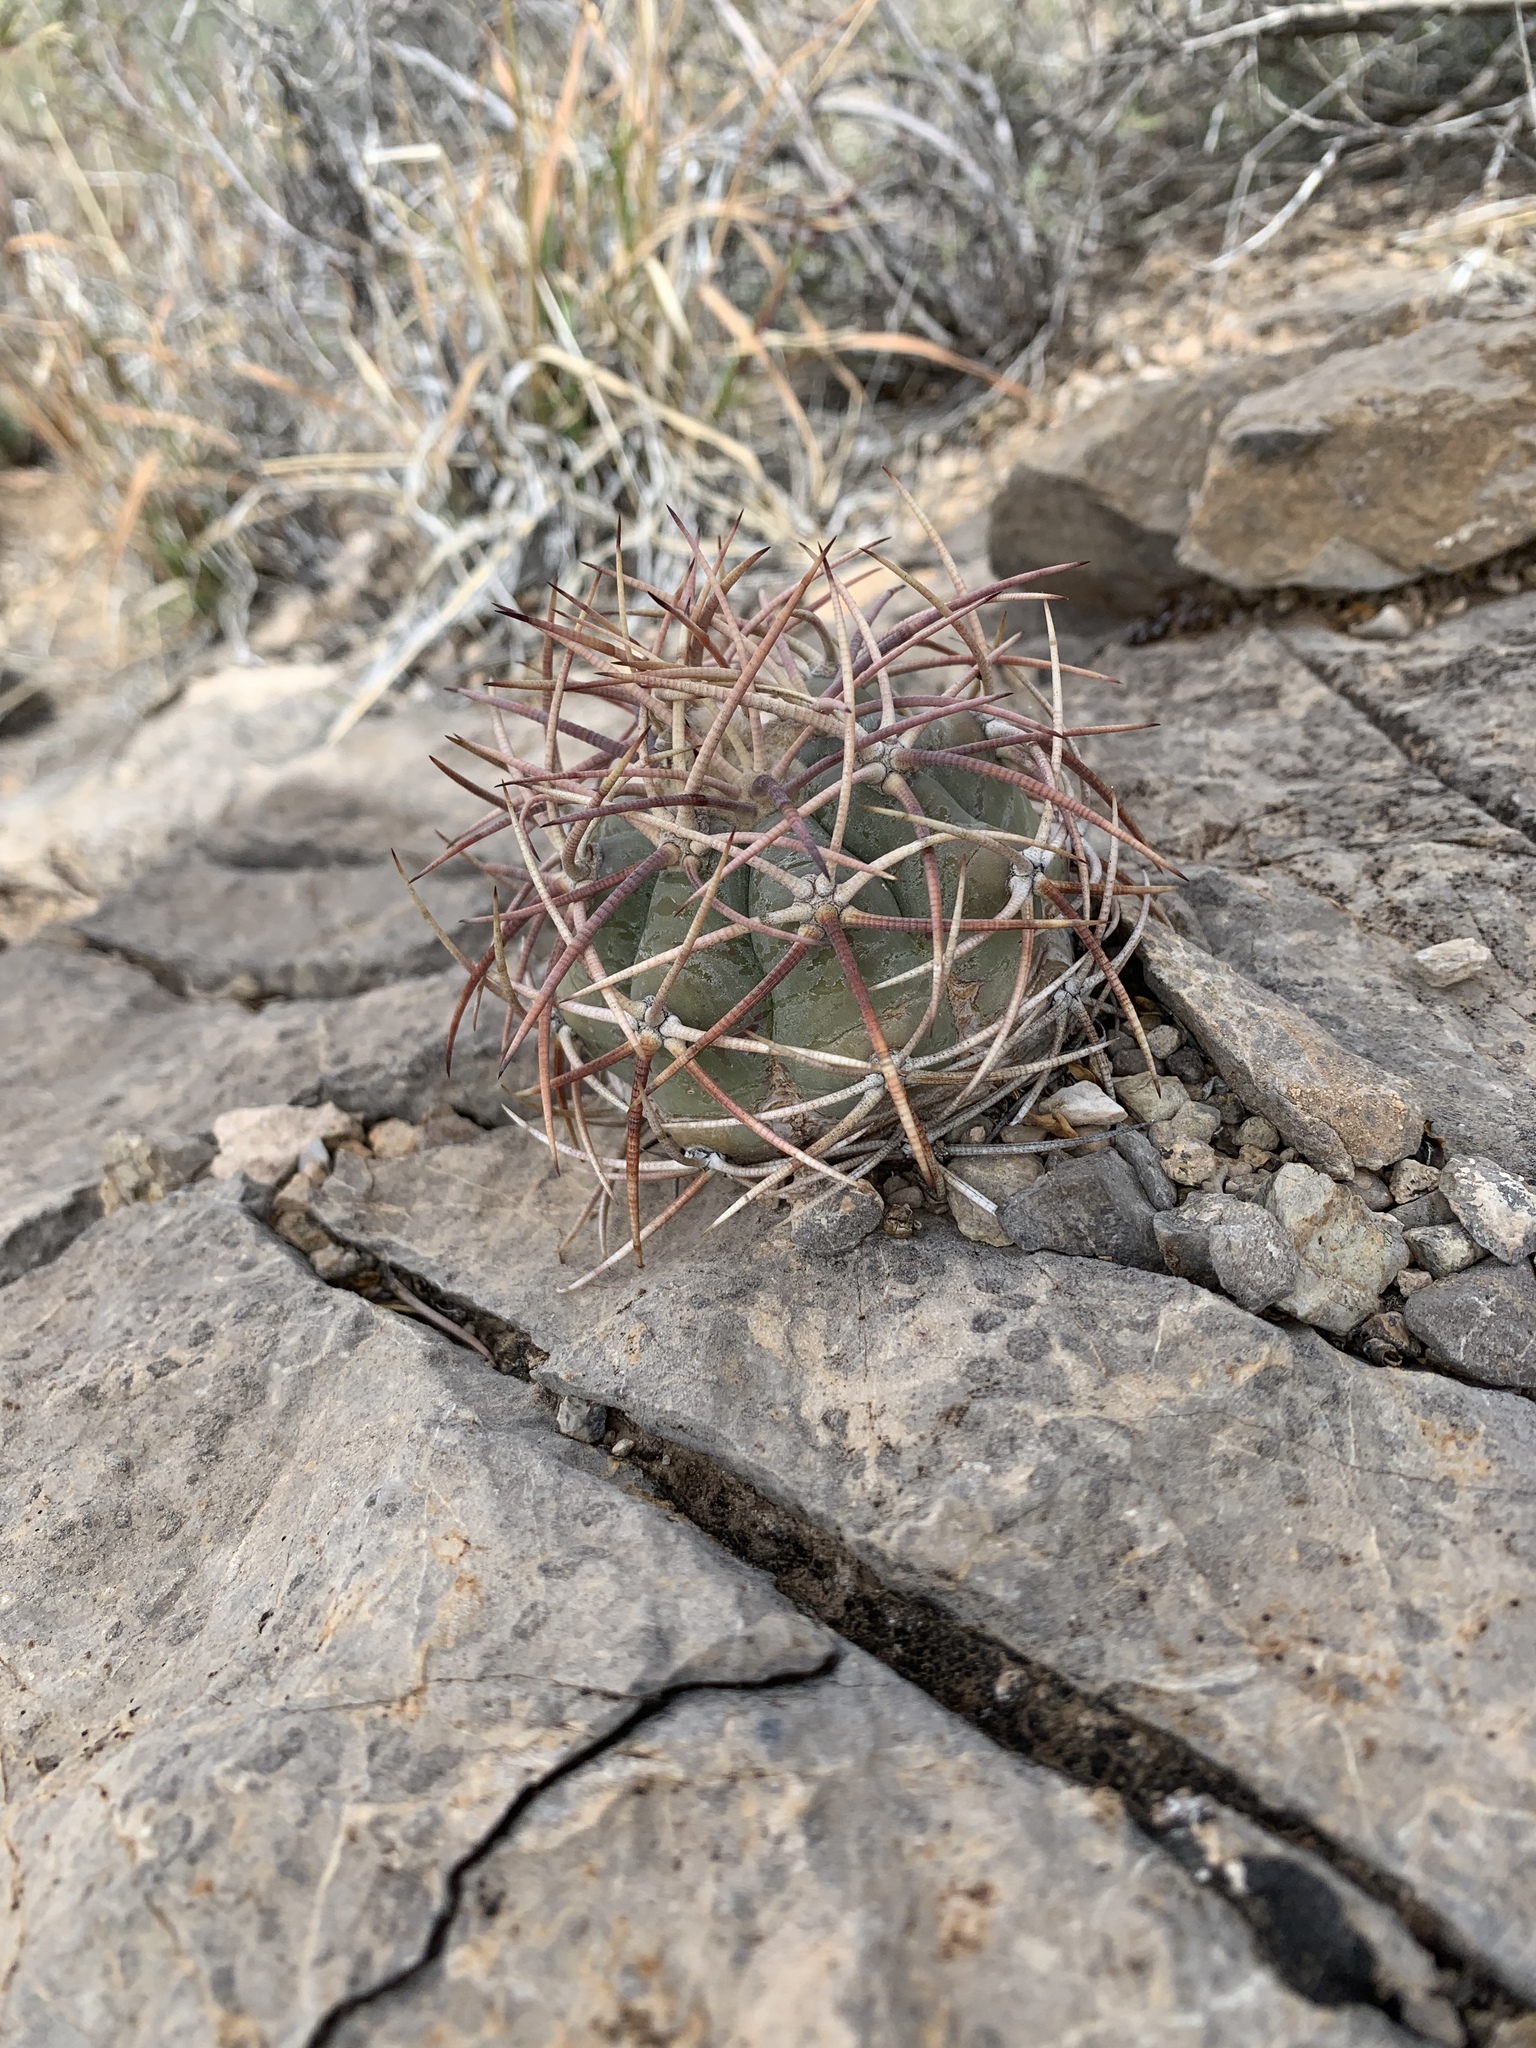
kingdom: Plantae
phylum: Tracheophyta
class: Magnoliopsida
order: Caryophyllales
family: Cactaceae
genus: Echinocactus
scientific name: Echinocactus horizonthalonius
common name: Devilshead
